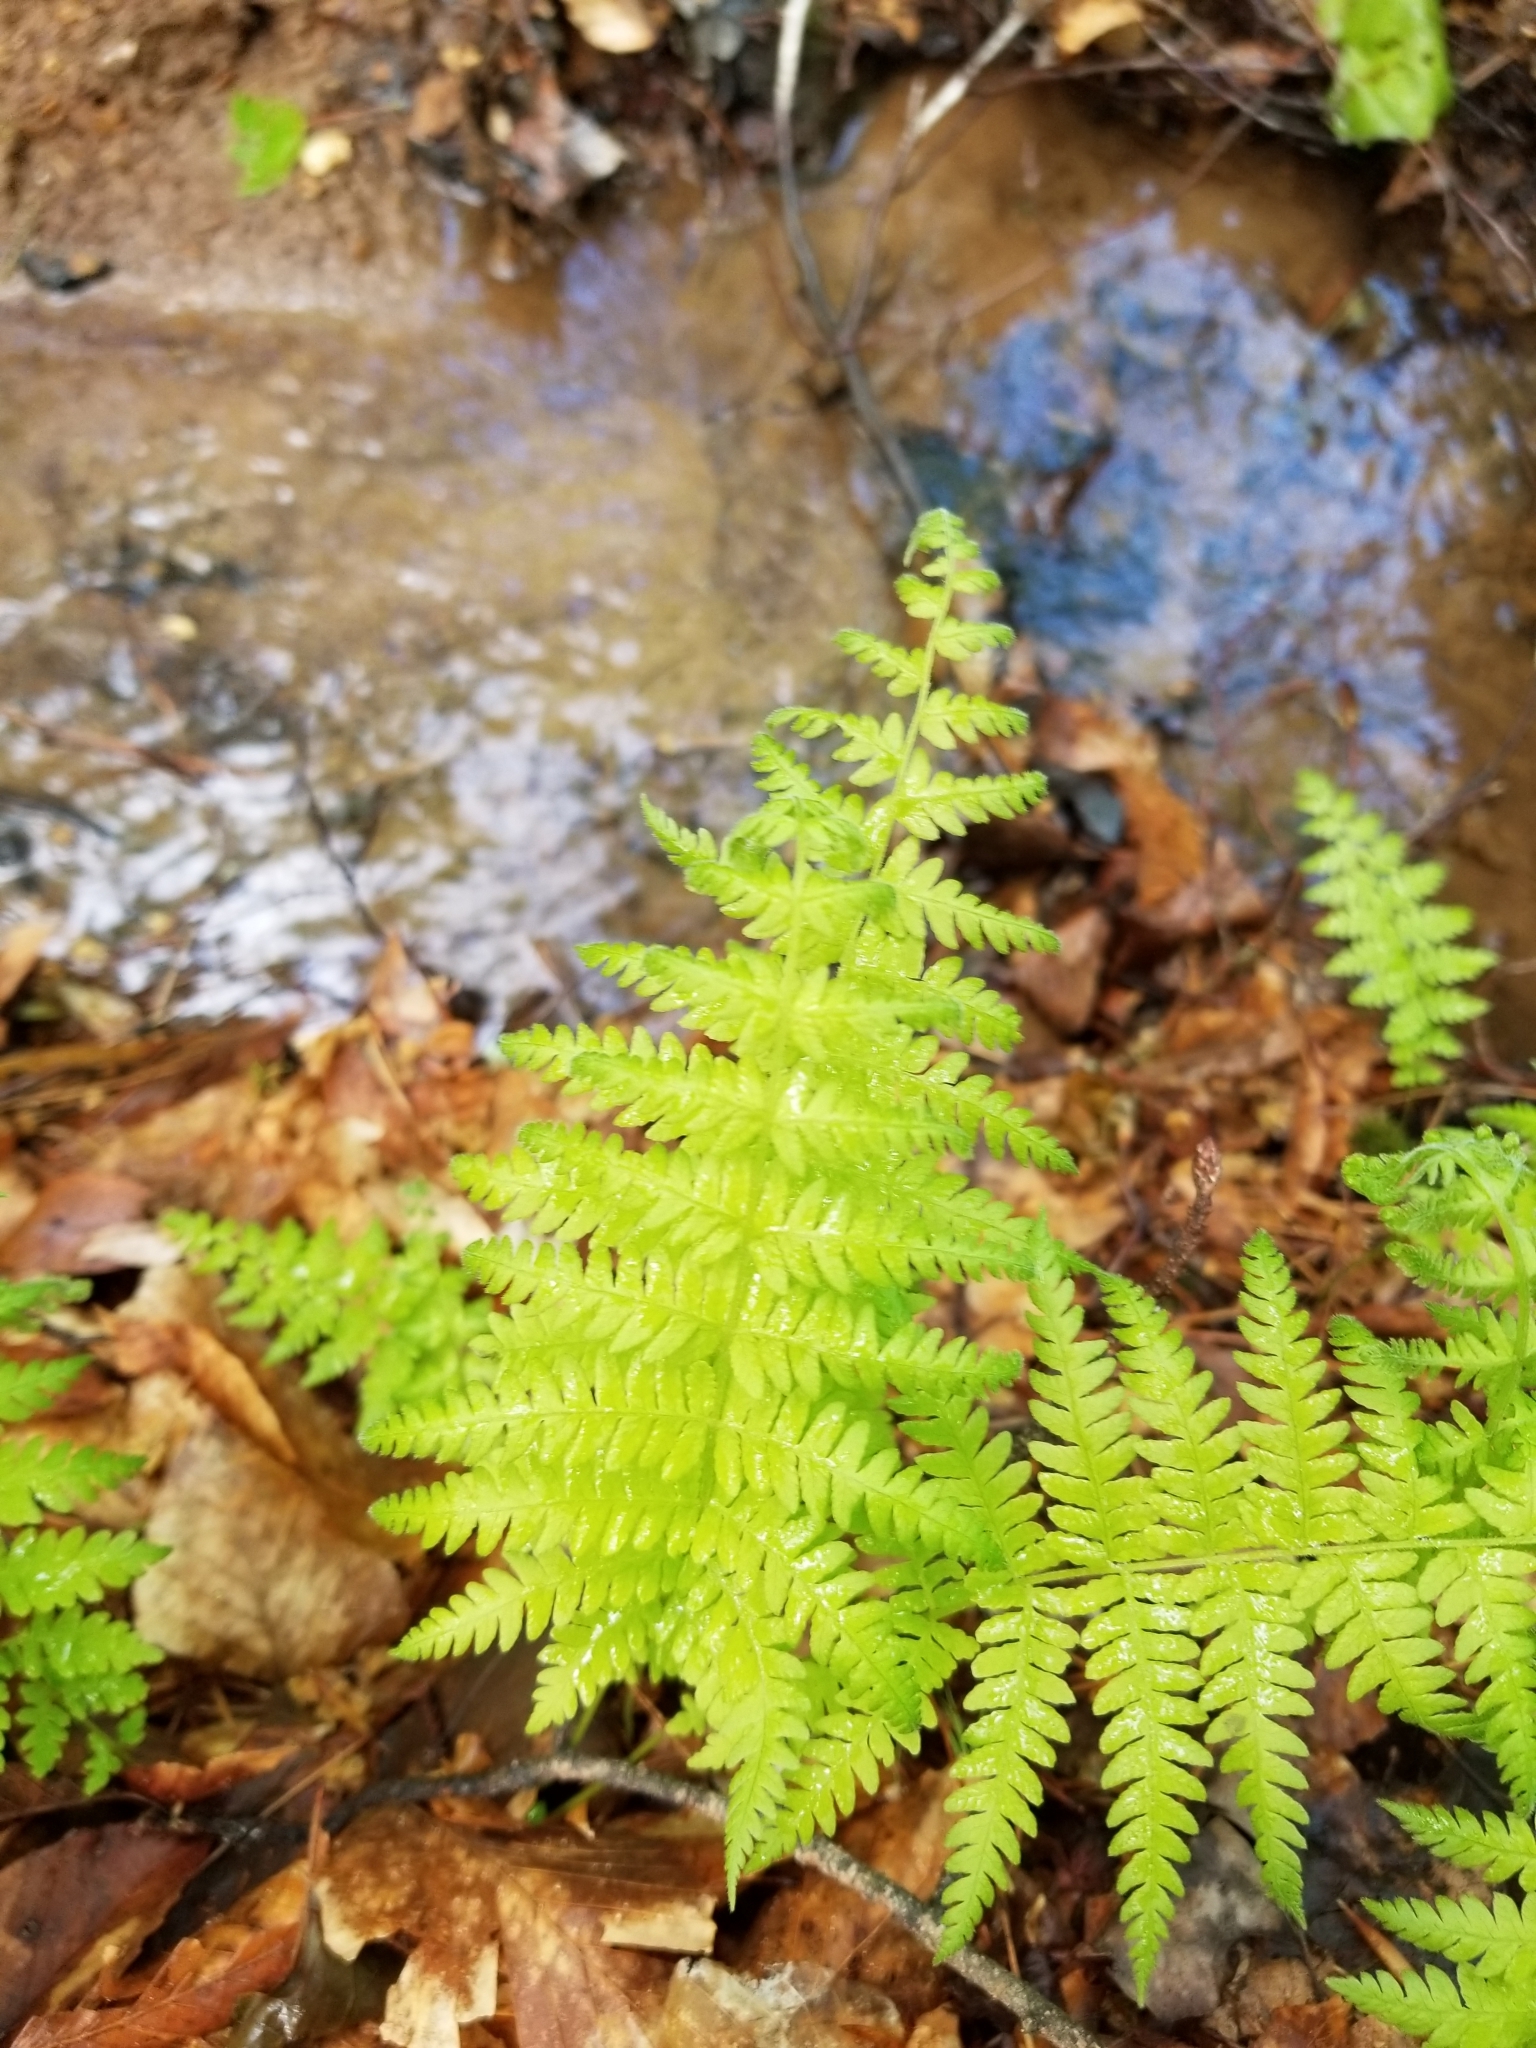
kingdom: Plantae
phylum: Tracheophyta
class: Polypodiopsida
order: Polypodiales
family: Thelypteridaceae
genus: Amauropelta
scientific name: Amauropelta noveboracensis
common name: New york fern
